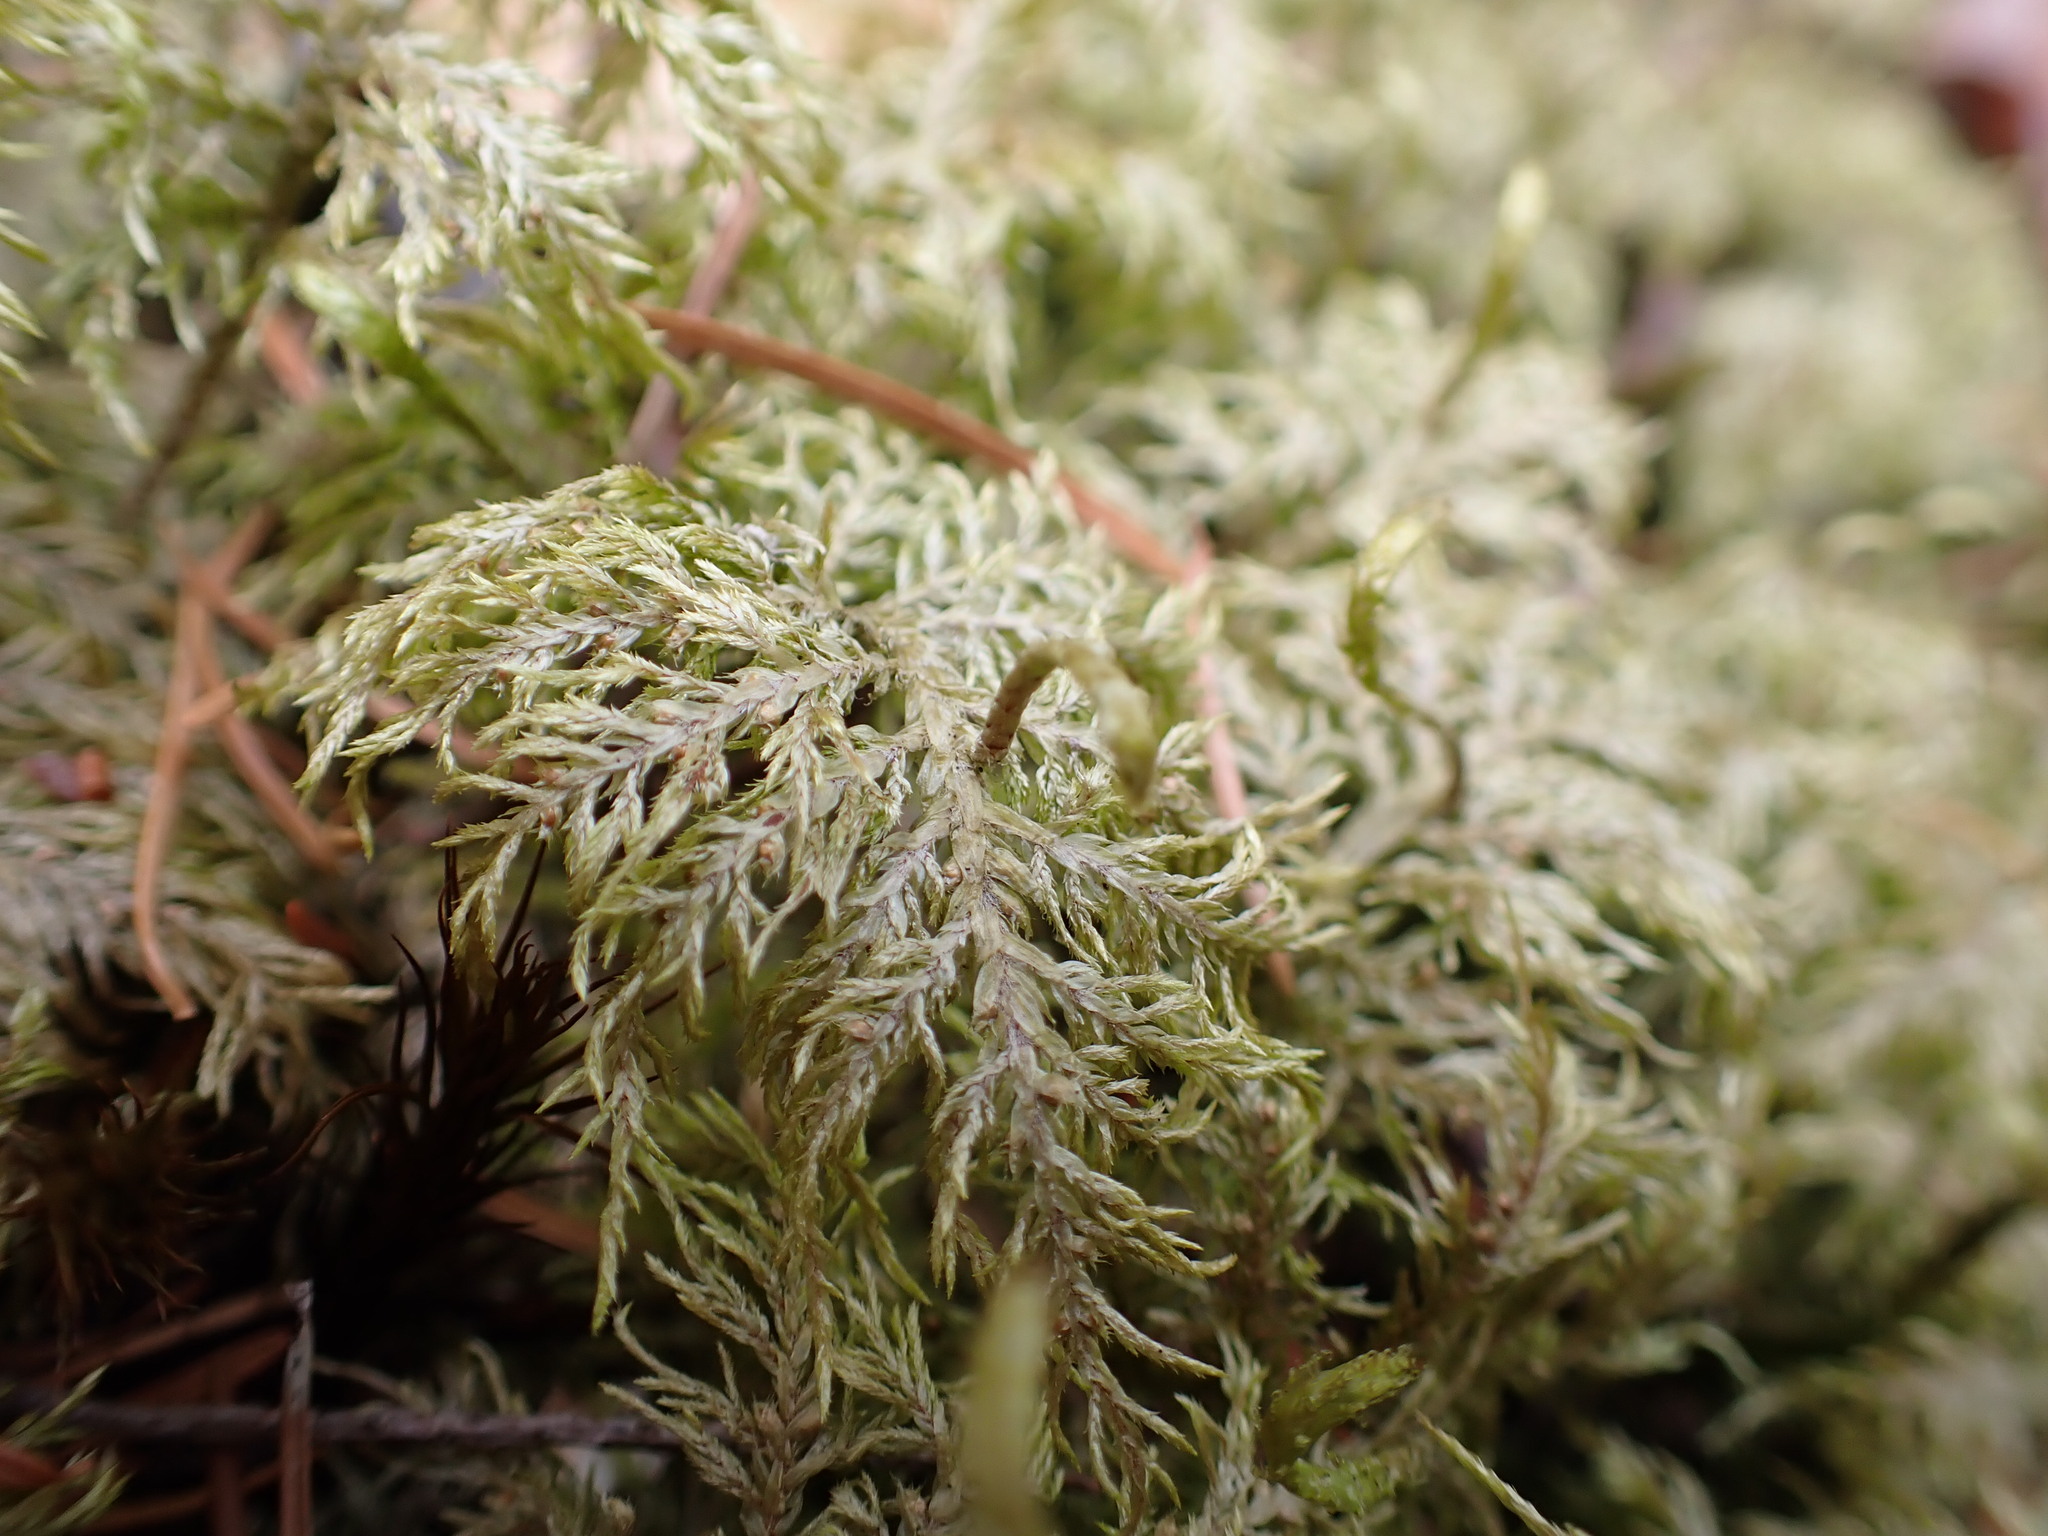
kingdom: Plantae
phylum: Bryophyta
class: Bryopsida
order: Hypnales
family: Hylocomiaceae
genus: Hylocomium
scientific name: Hylocomium splendens
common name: Stairstep moss
